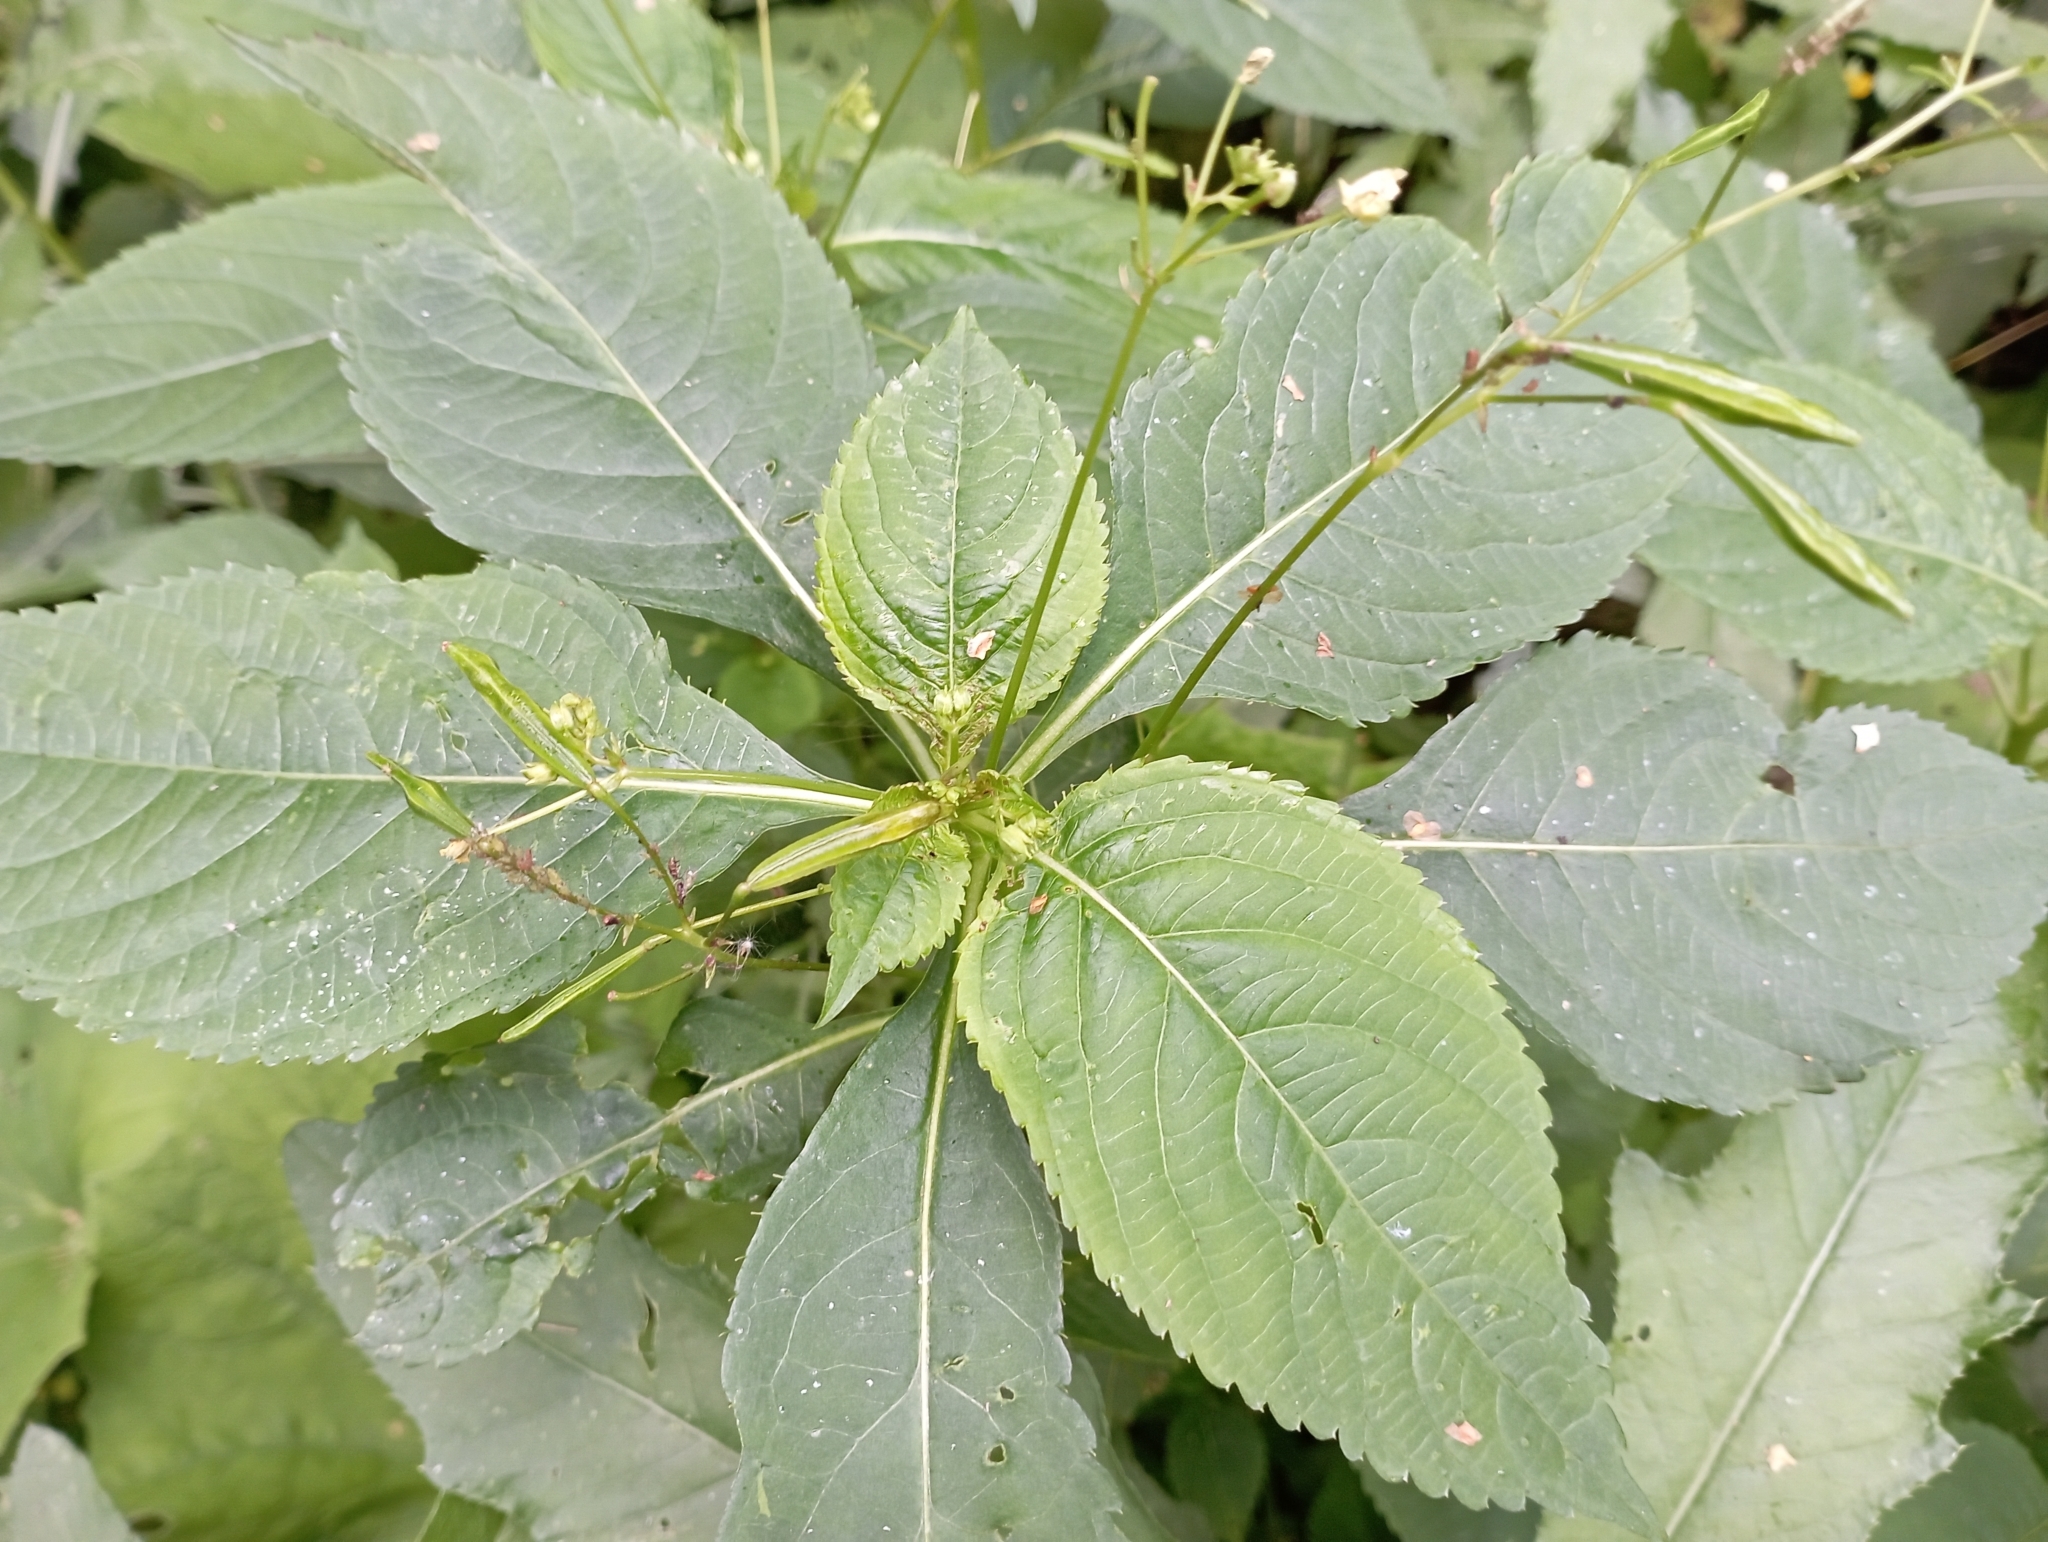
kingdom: Plantae
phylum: Tracheophyta
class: Magnoliopsida
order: Ericales
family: Balsaminaceae
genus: Impatiens
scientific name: Impatiens parviflora
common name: Small balsam
